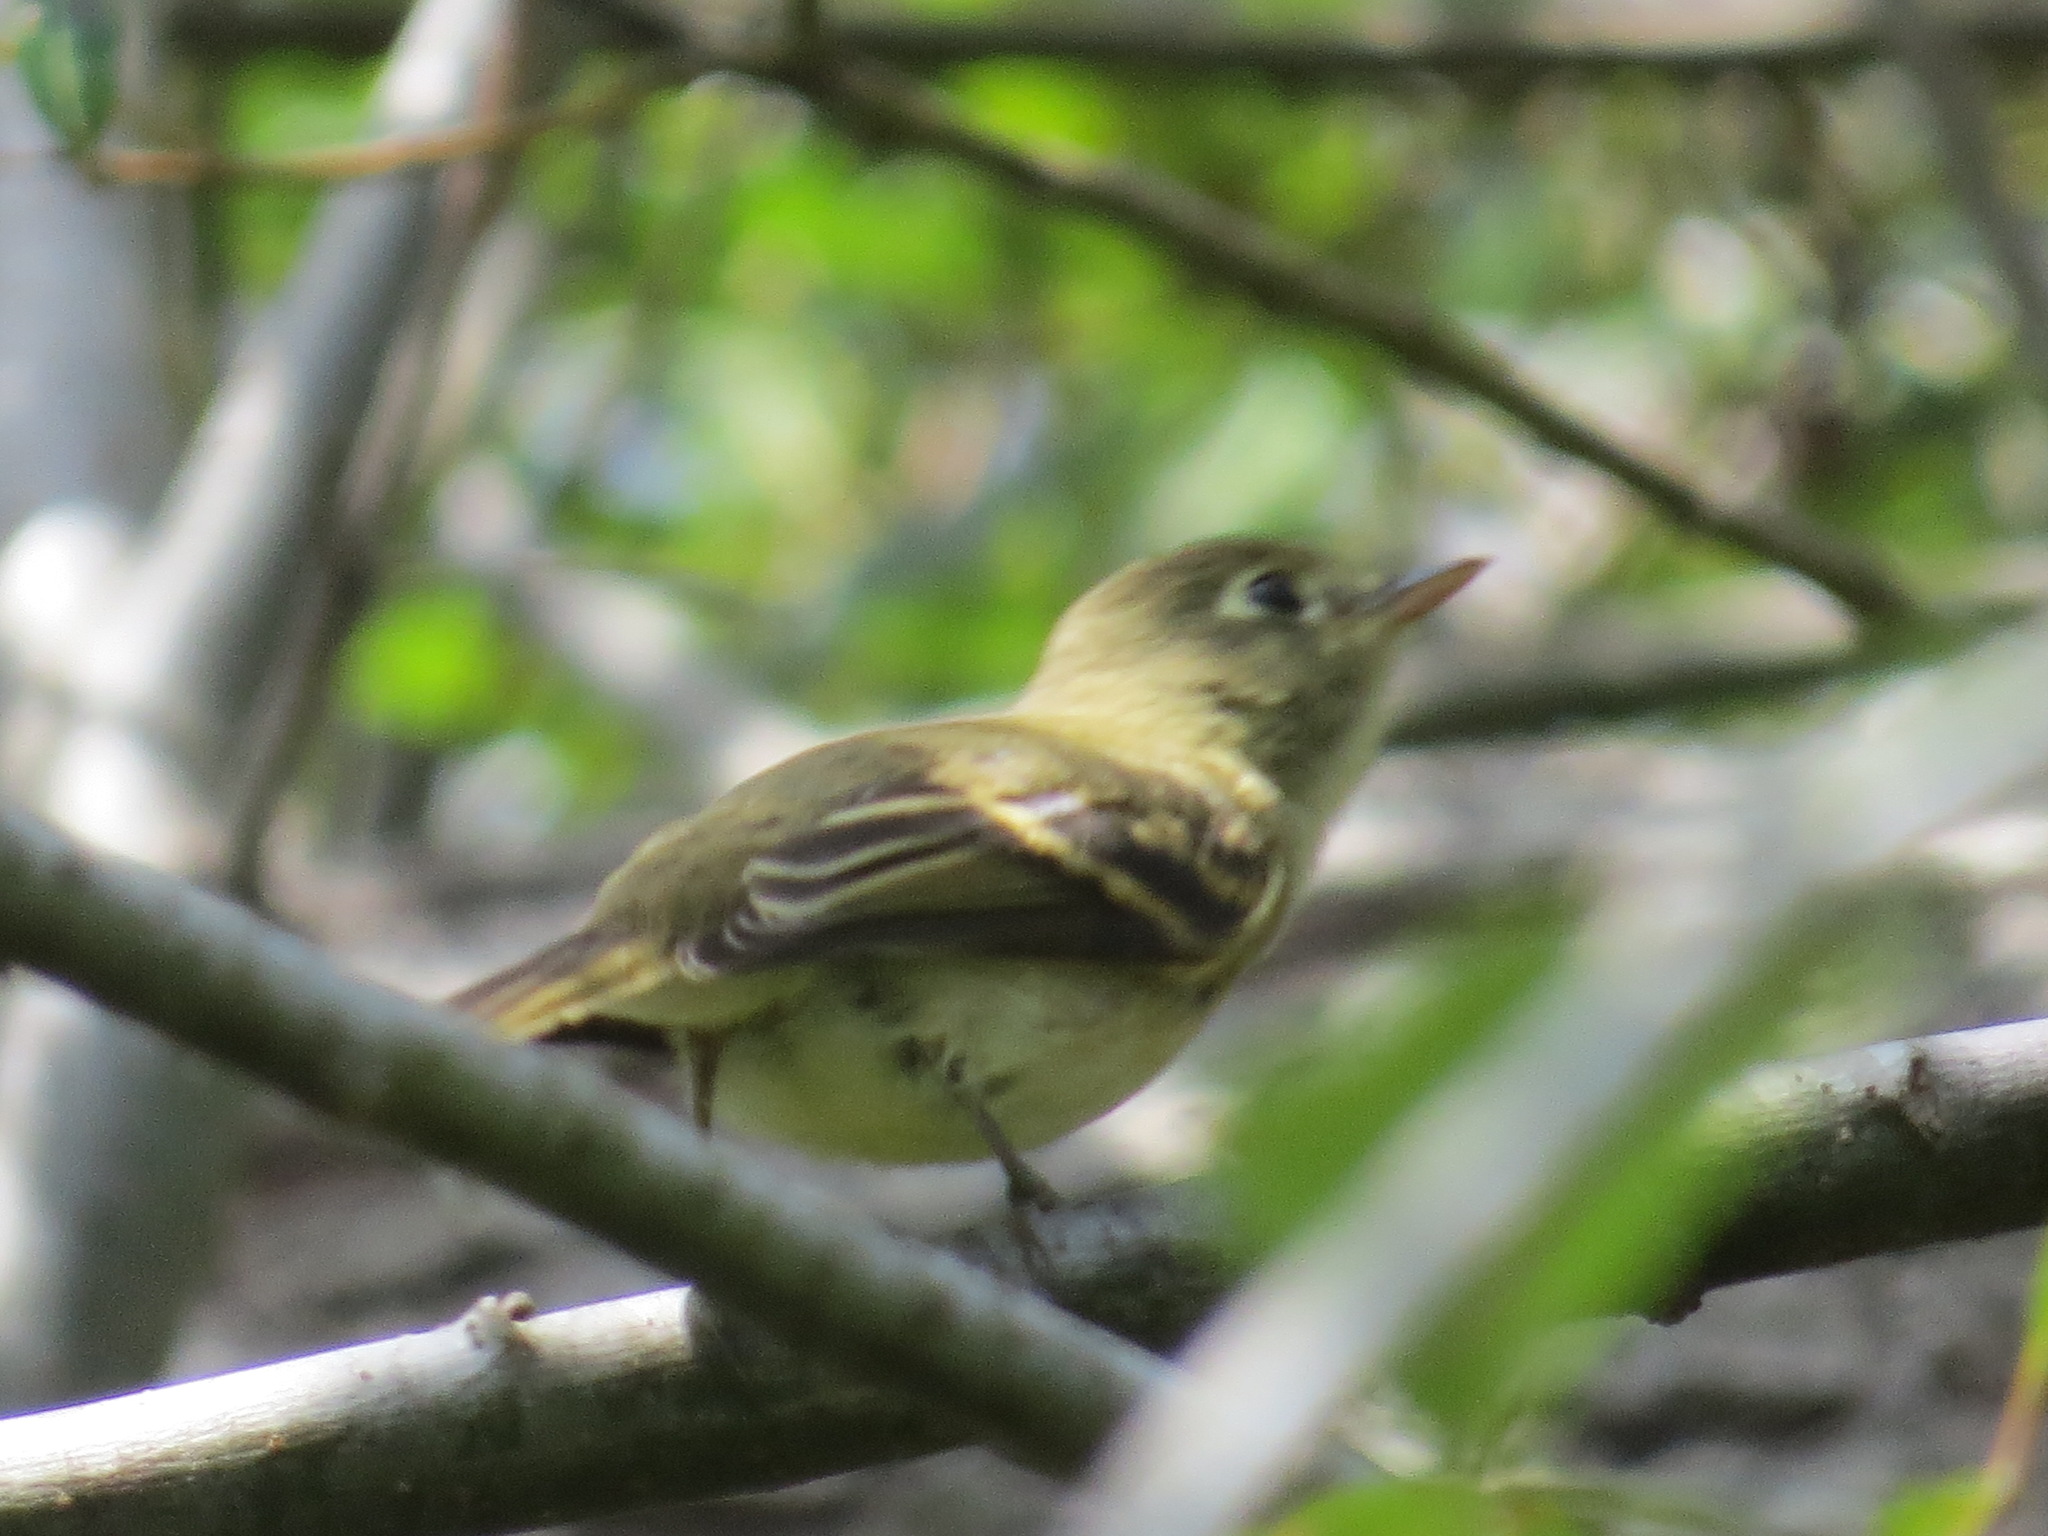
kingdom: Animalia
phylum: Chordata
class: Aves
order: Passeriformes
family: Tyrannidae
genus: Empidonax
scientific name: Empidonax difficilis
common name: Pacific-slope flycatcher
